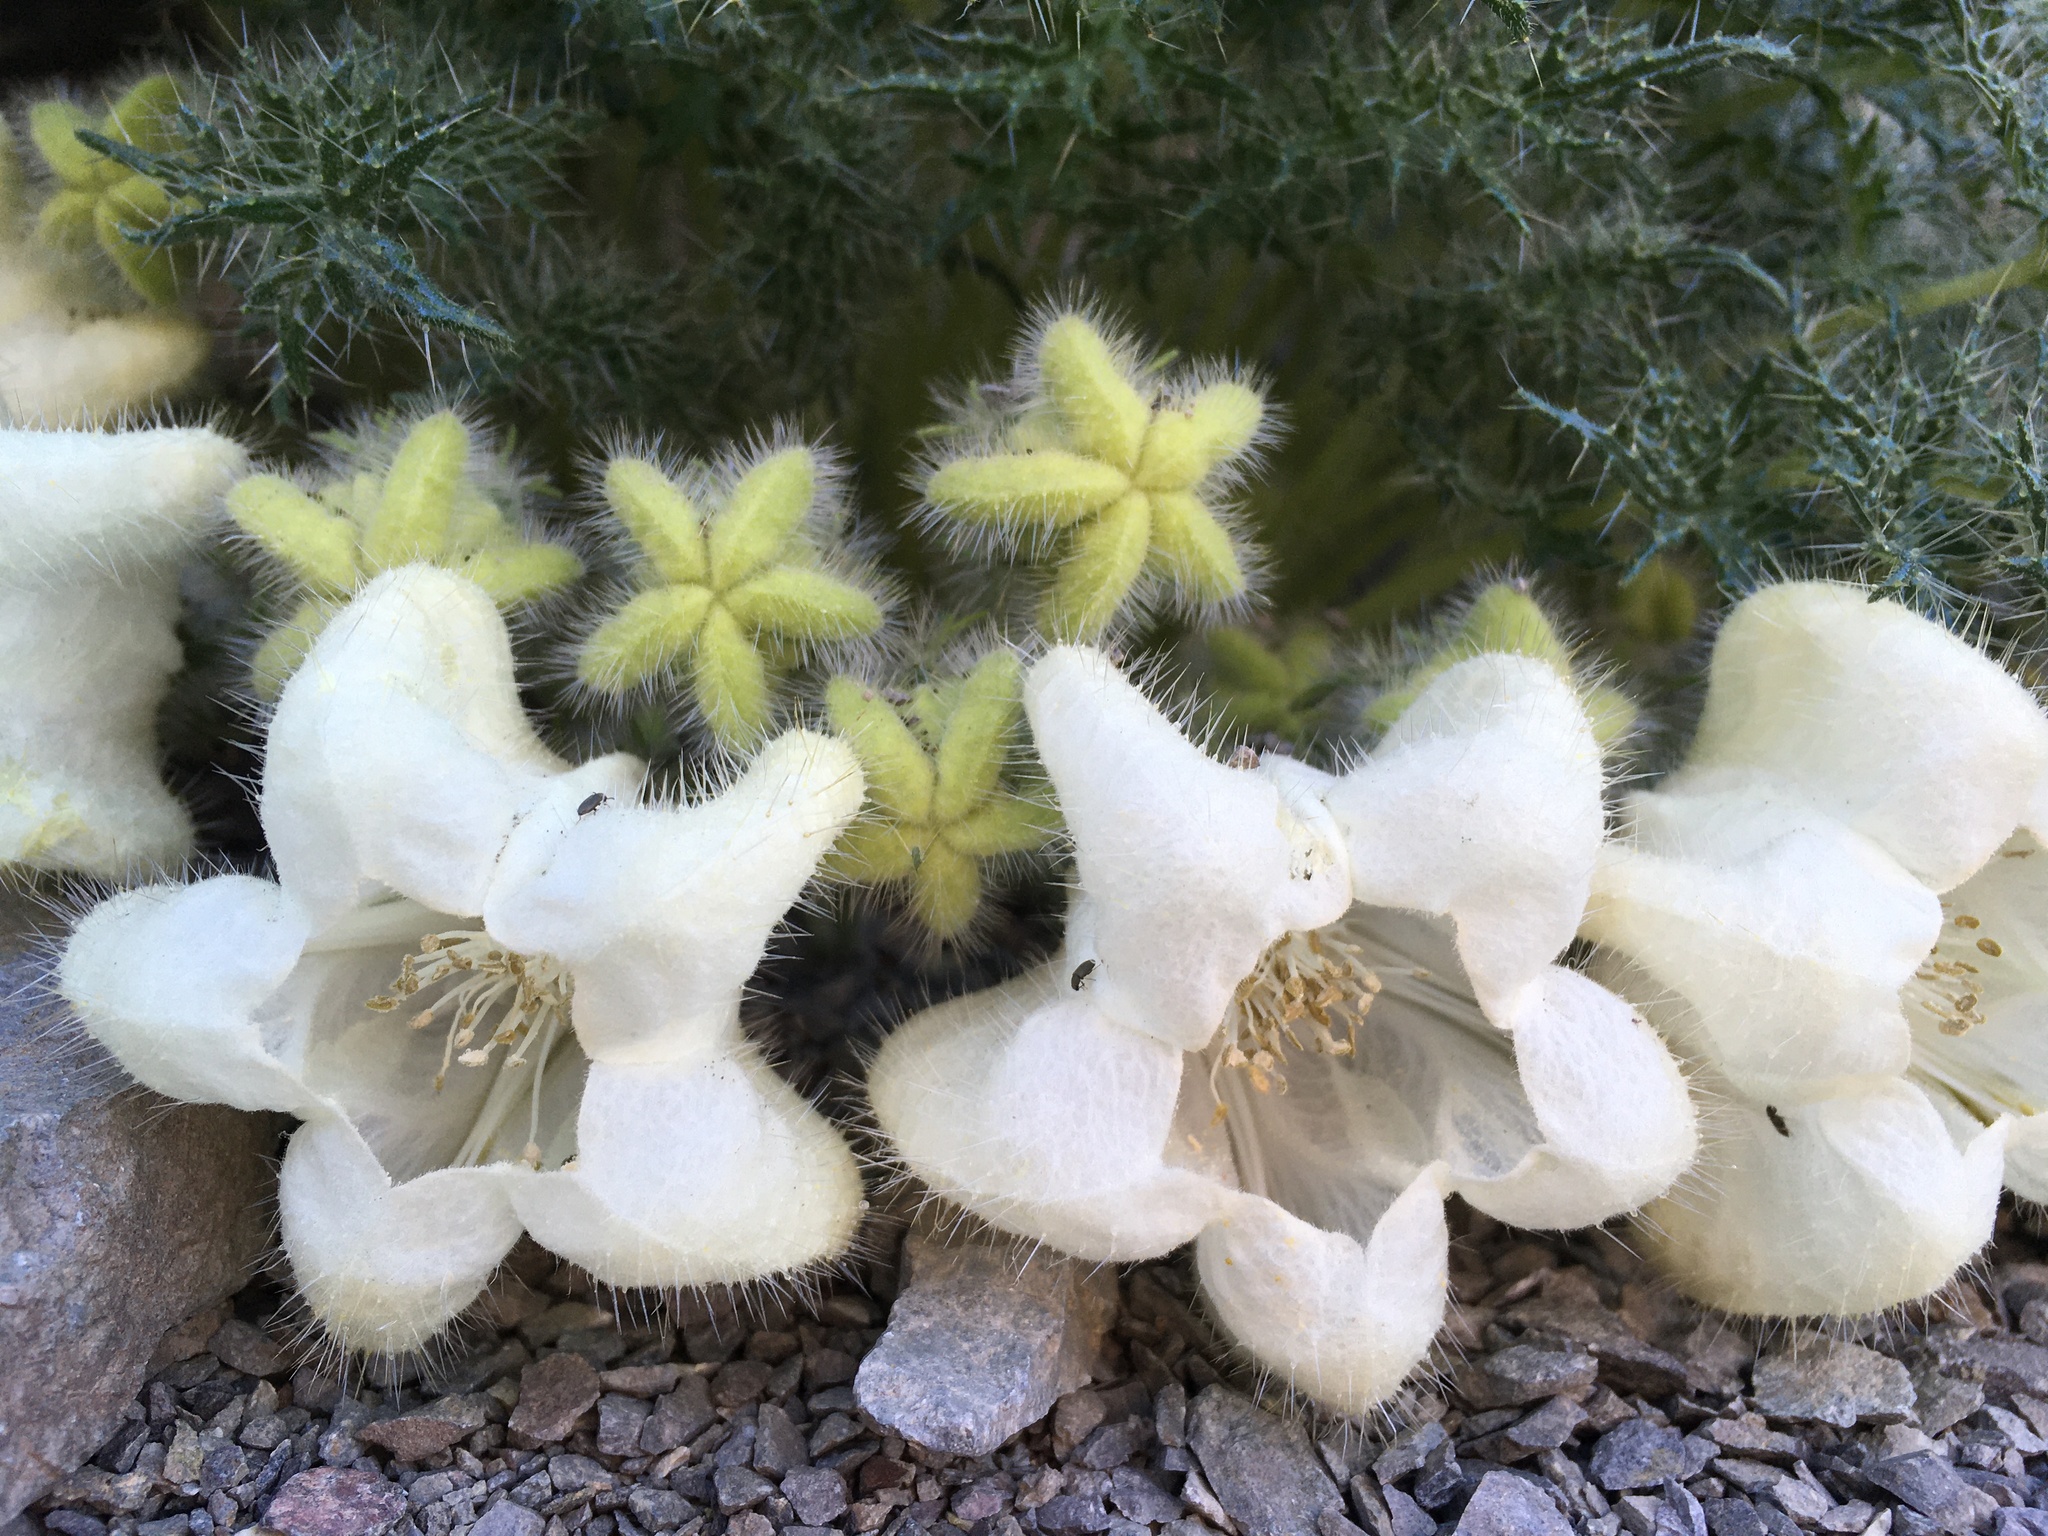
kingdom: Plantae
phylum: Tracheophyta
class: Magnoliopsida
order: Cornales
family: Loasaceae
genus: Caiophora
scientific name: Caiophora coronata
